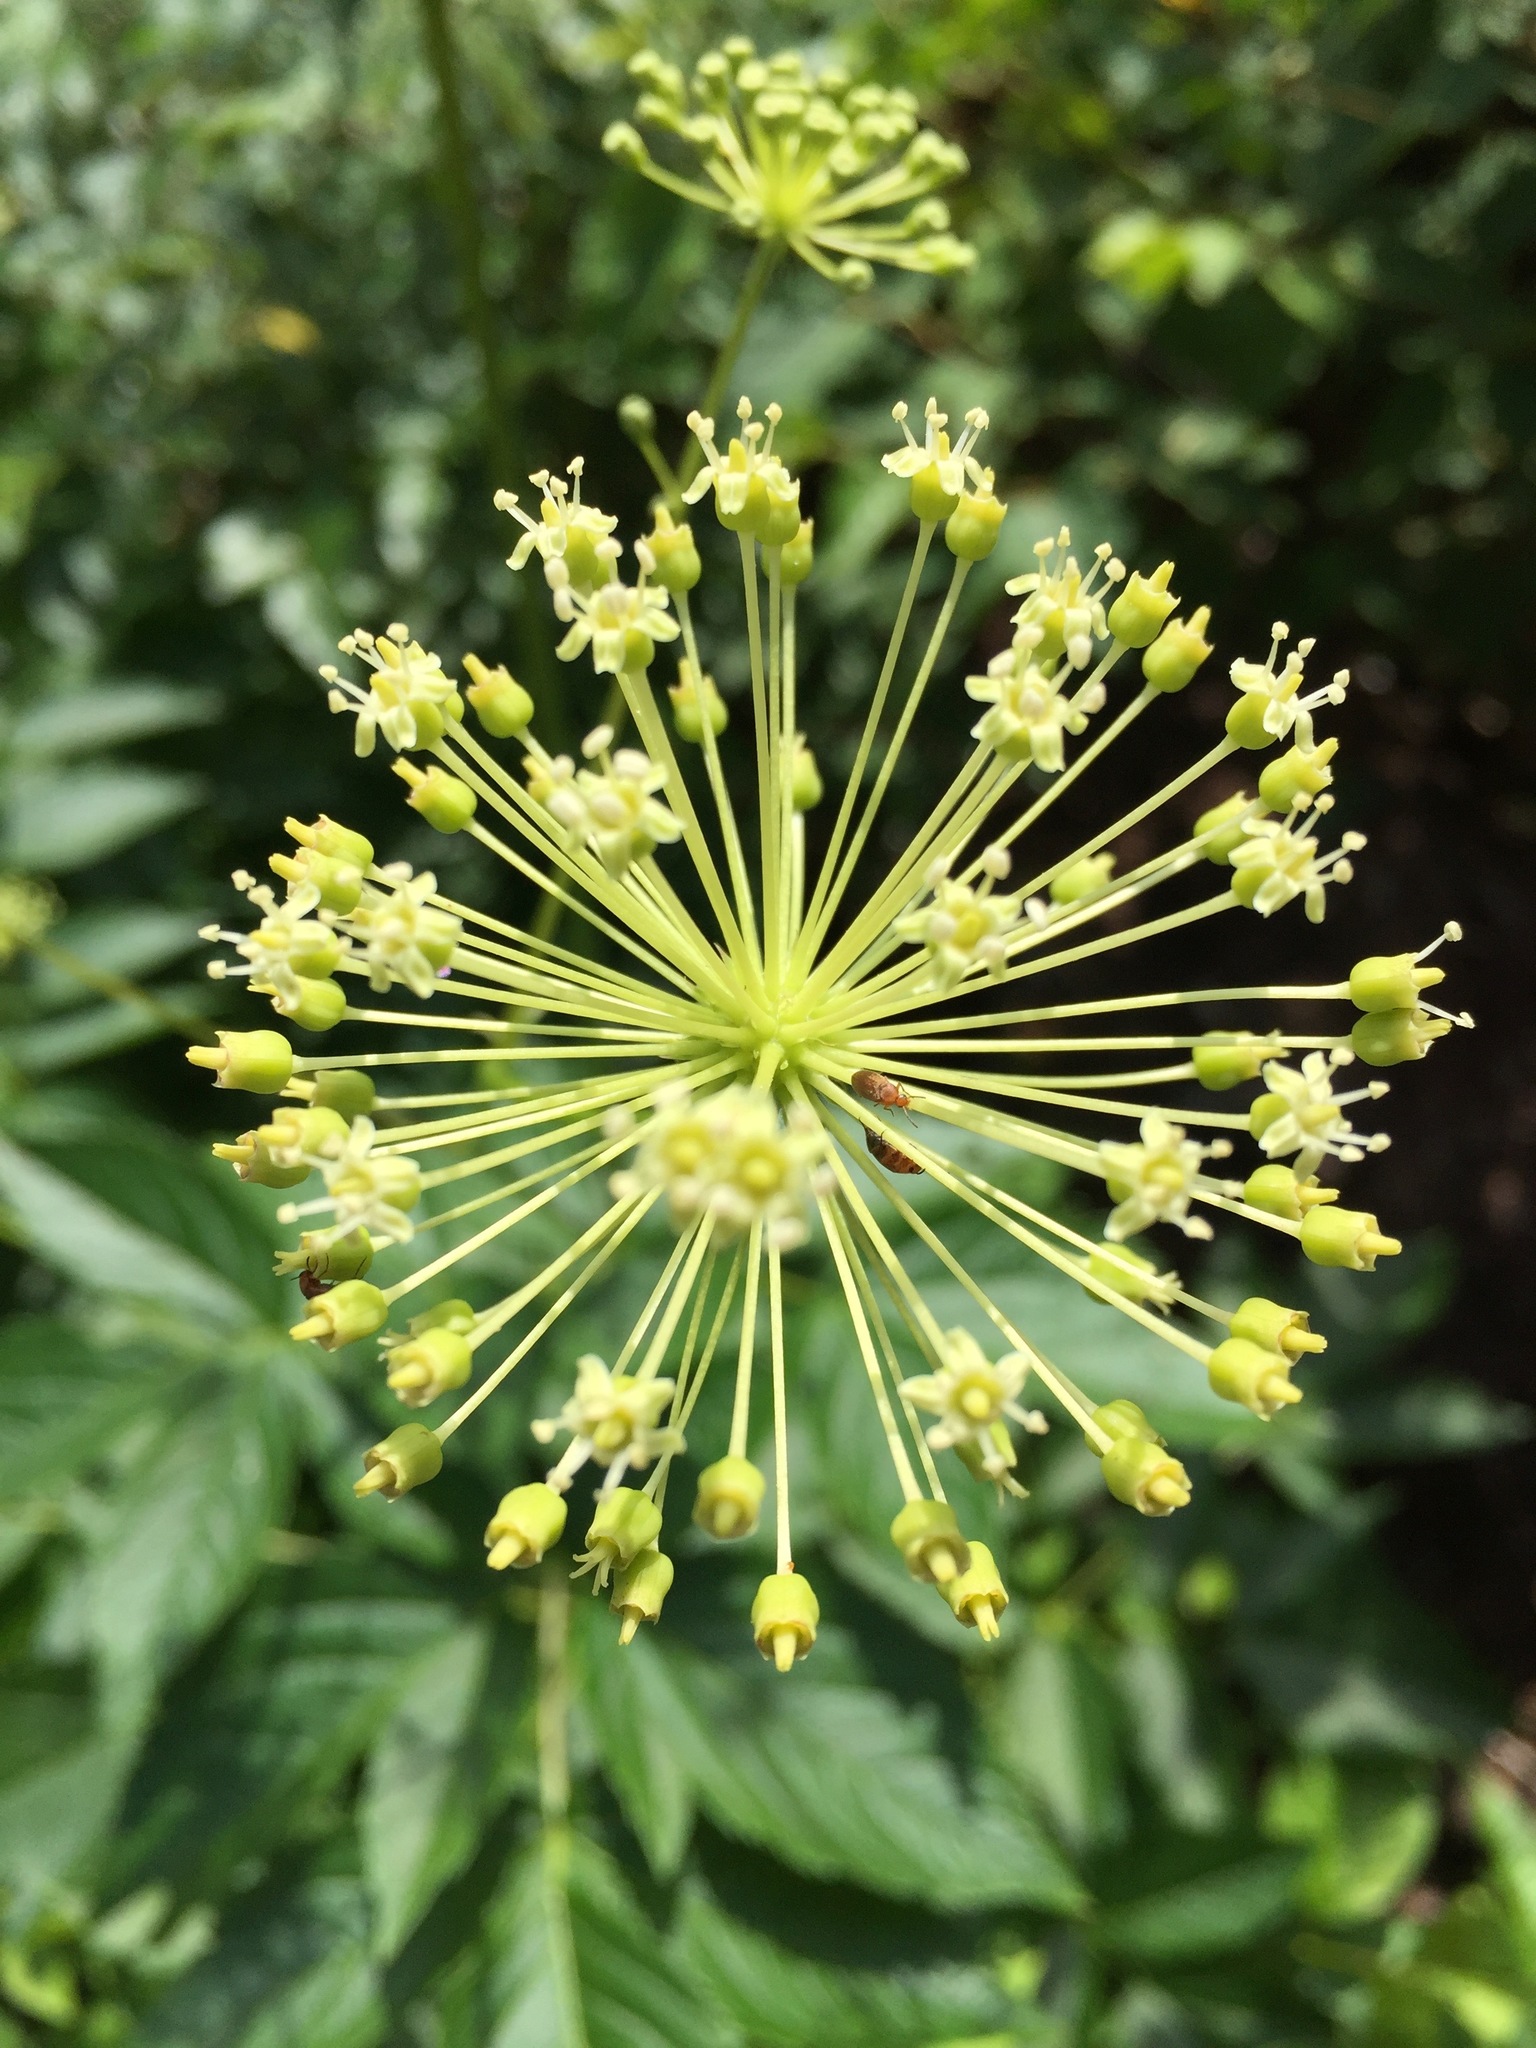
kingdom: Plantae
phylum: Tracheophyta
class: Magnoliopsida
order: Apiales
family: Araliaceae
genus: Aralia
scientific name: Aralia hispida
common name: Bristly sarsaparilla
